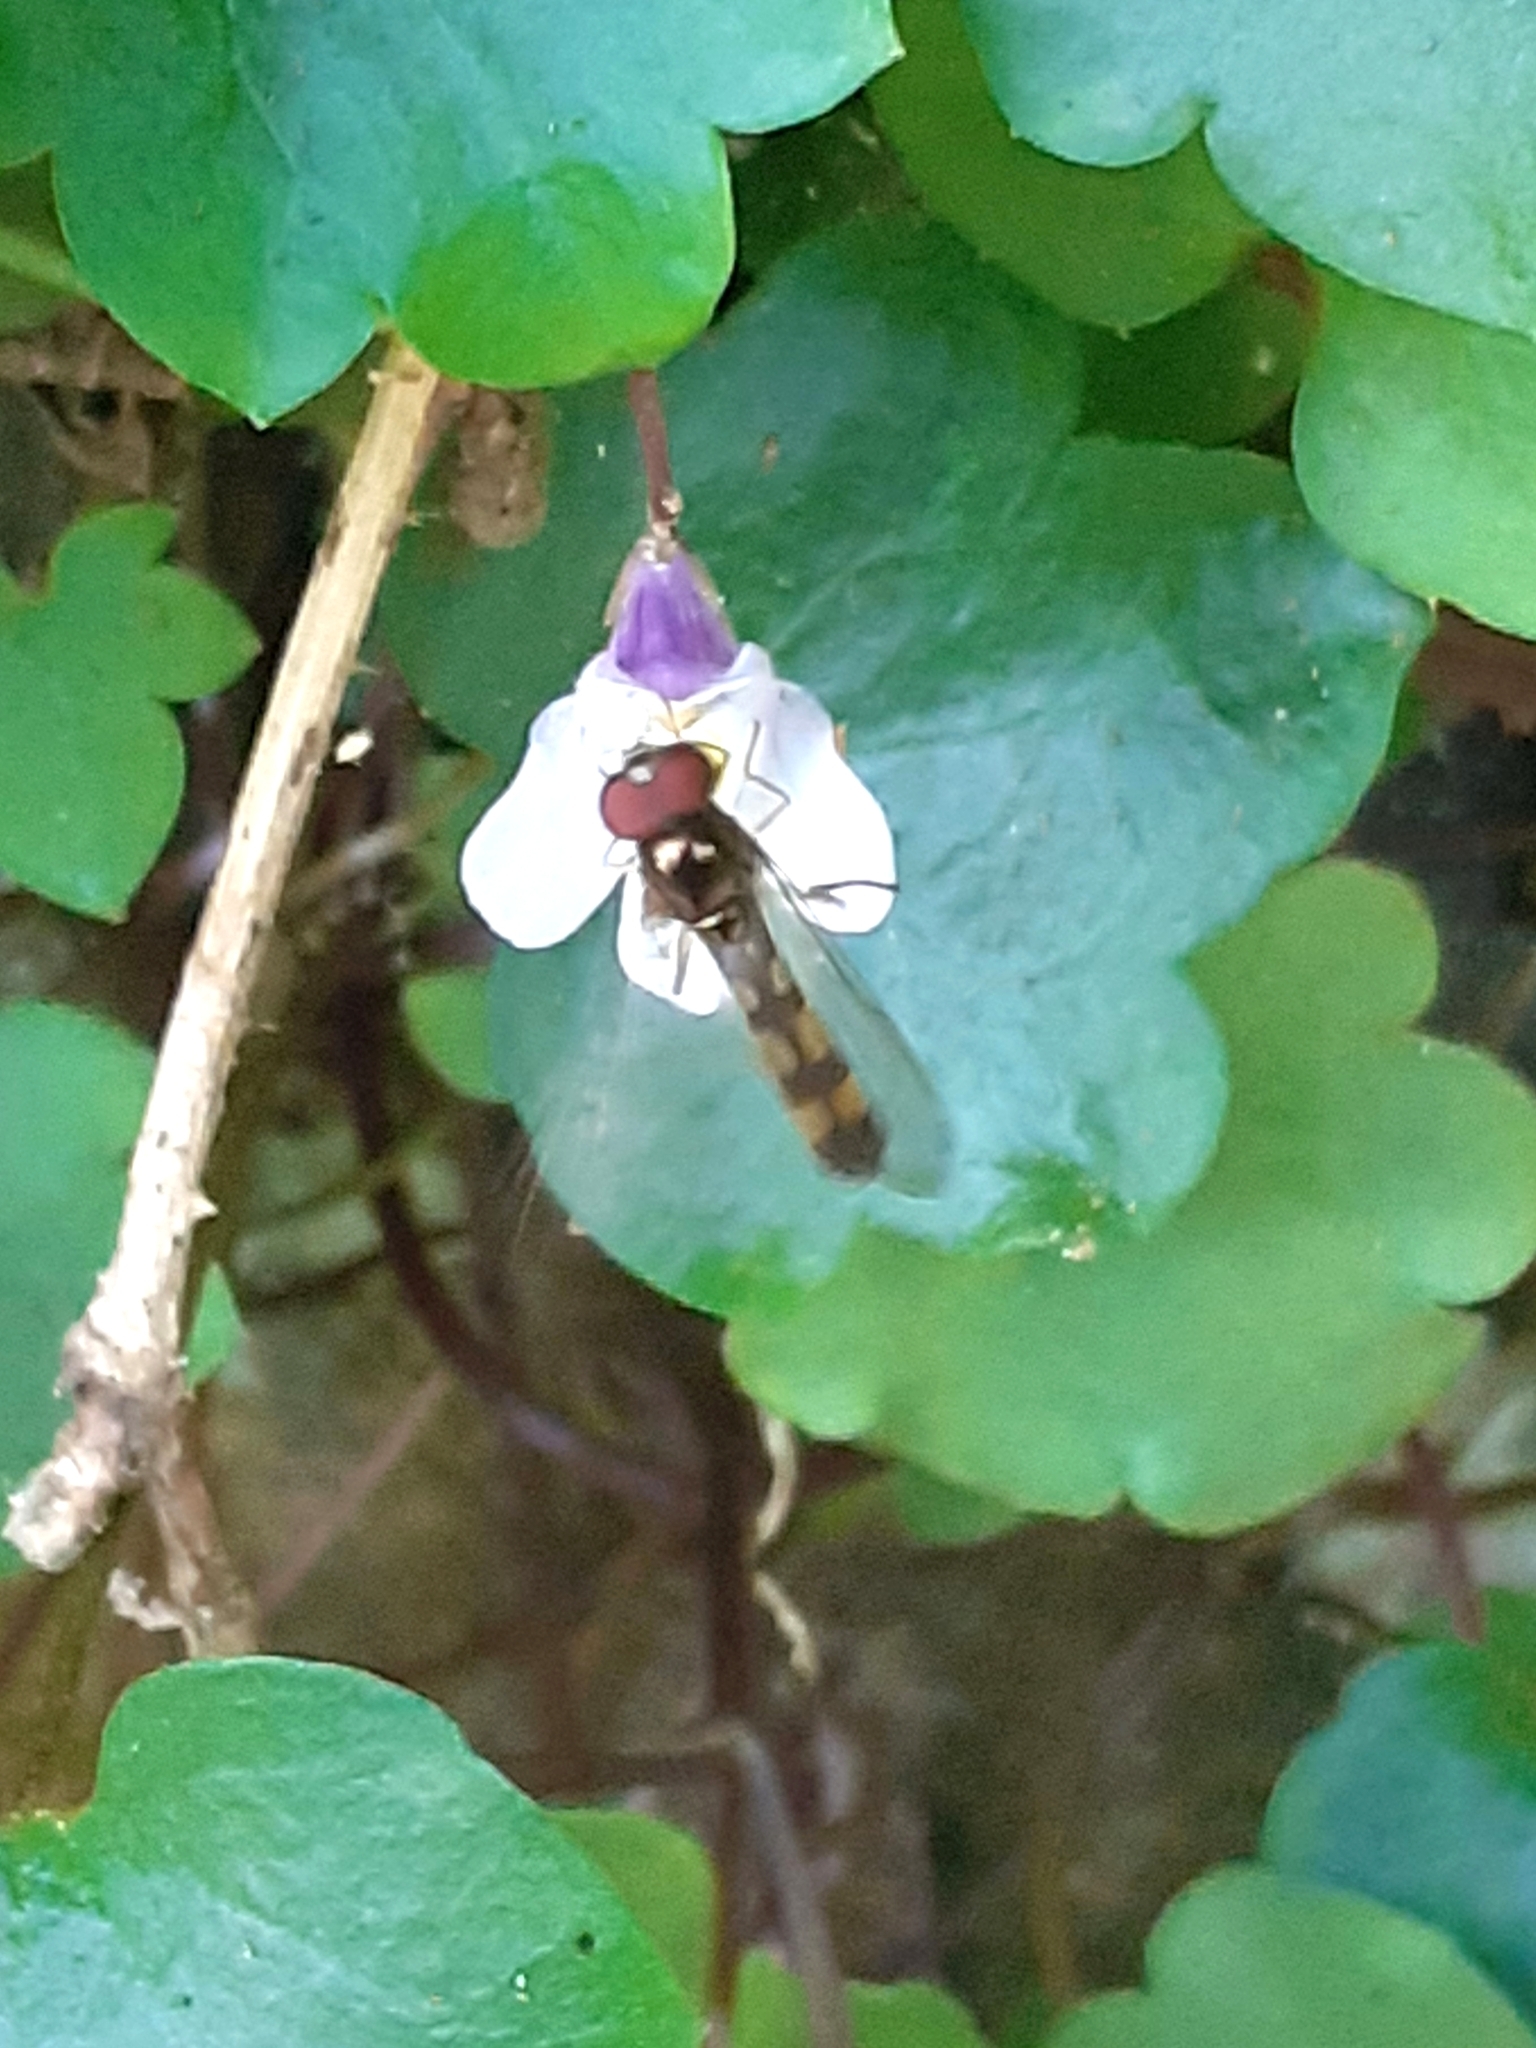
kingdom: Animalia
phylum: Arthropoda
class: Insecta
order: Diptera
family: Syrphidae
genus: Melanostoma
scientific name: Melanostoma scalare
